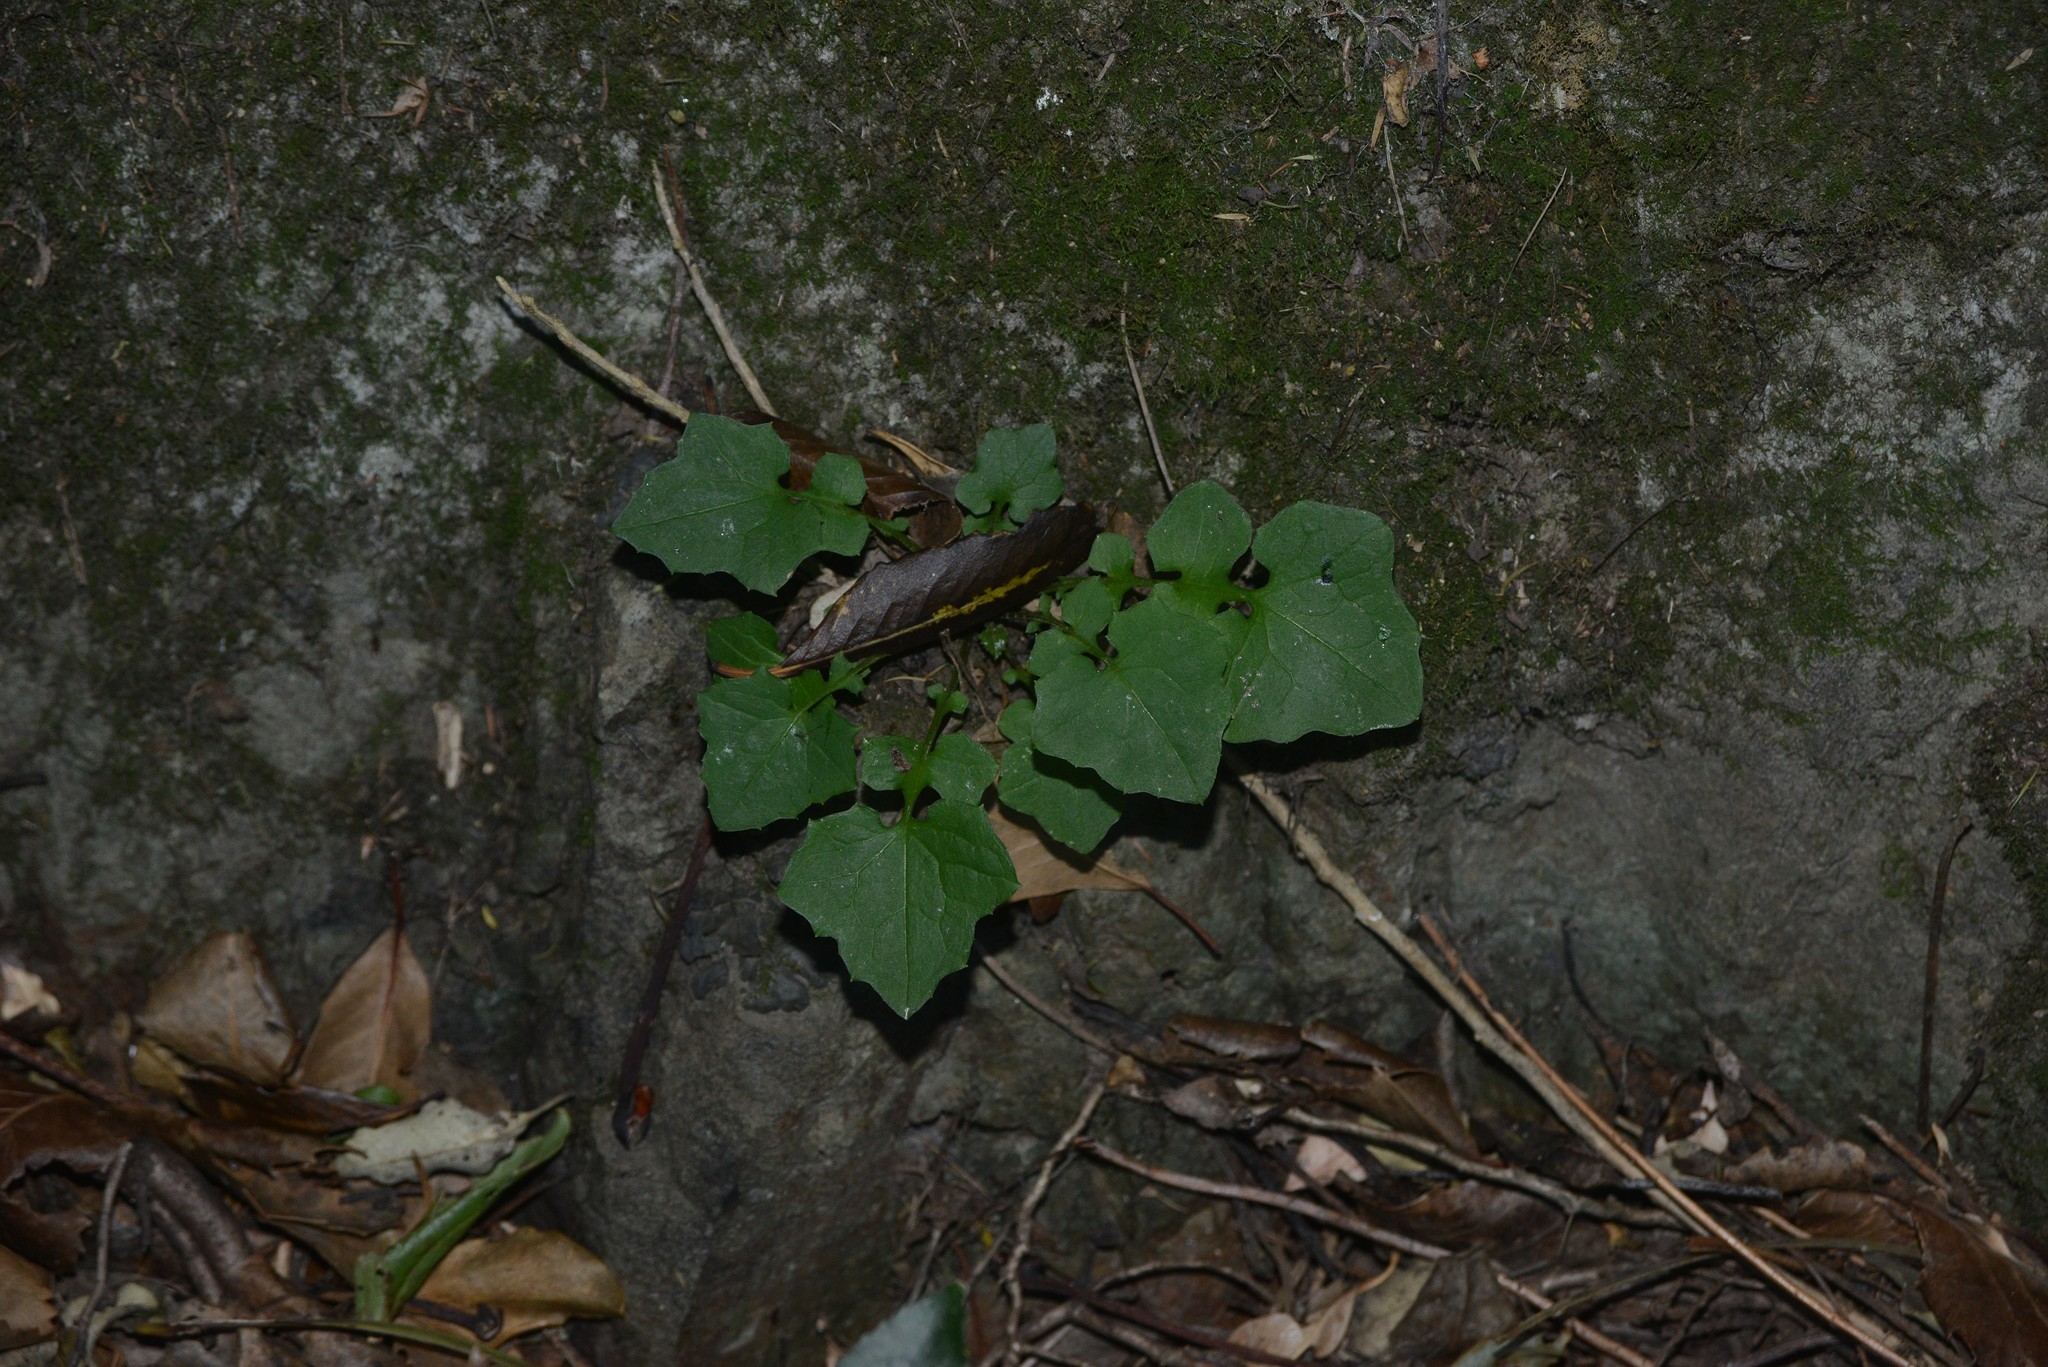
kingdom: Plantae
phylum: Tracheophyta
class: Magnoliopsida
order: Asterales
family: Asteraceae
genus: Mycelis
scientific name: Mycelis muralis
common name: Wall lettuce
